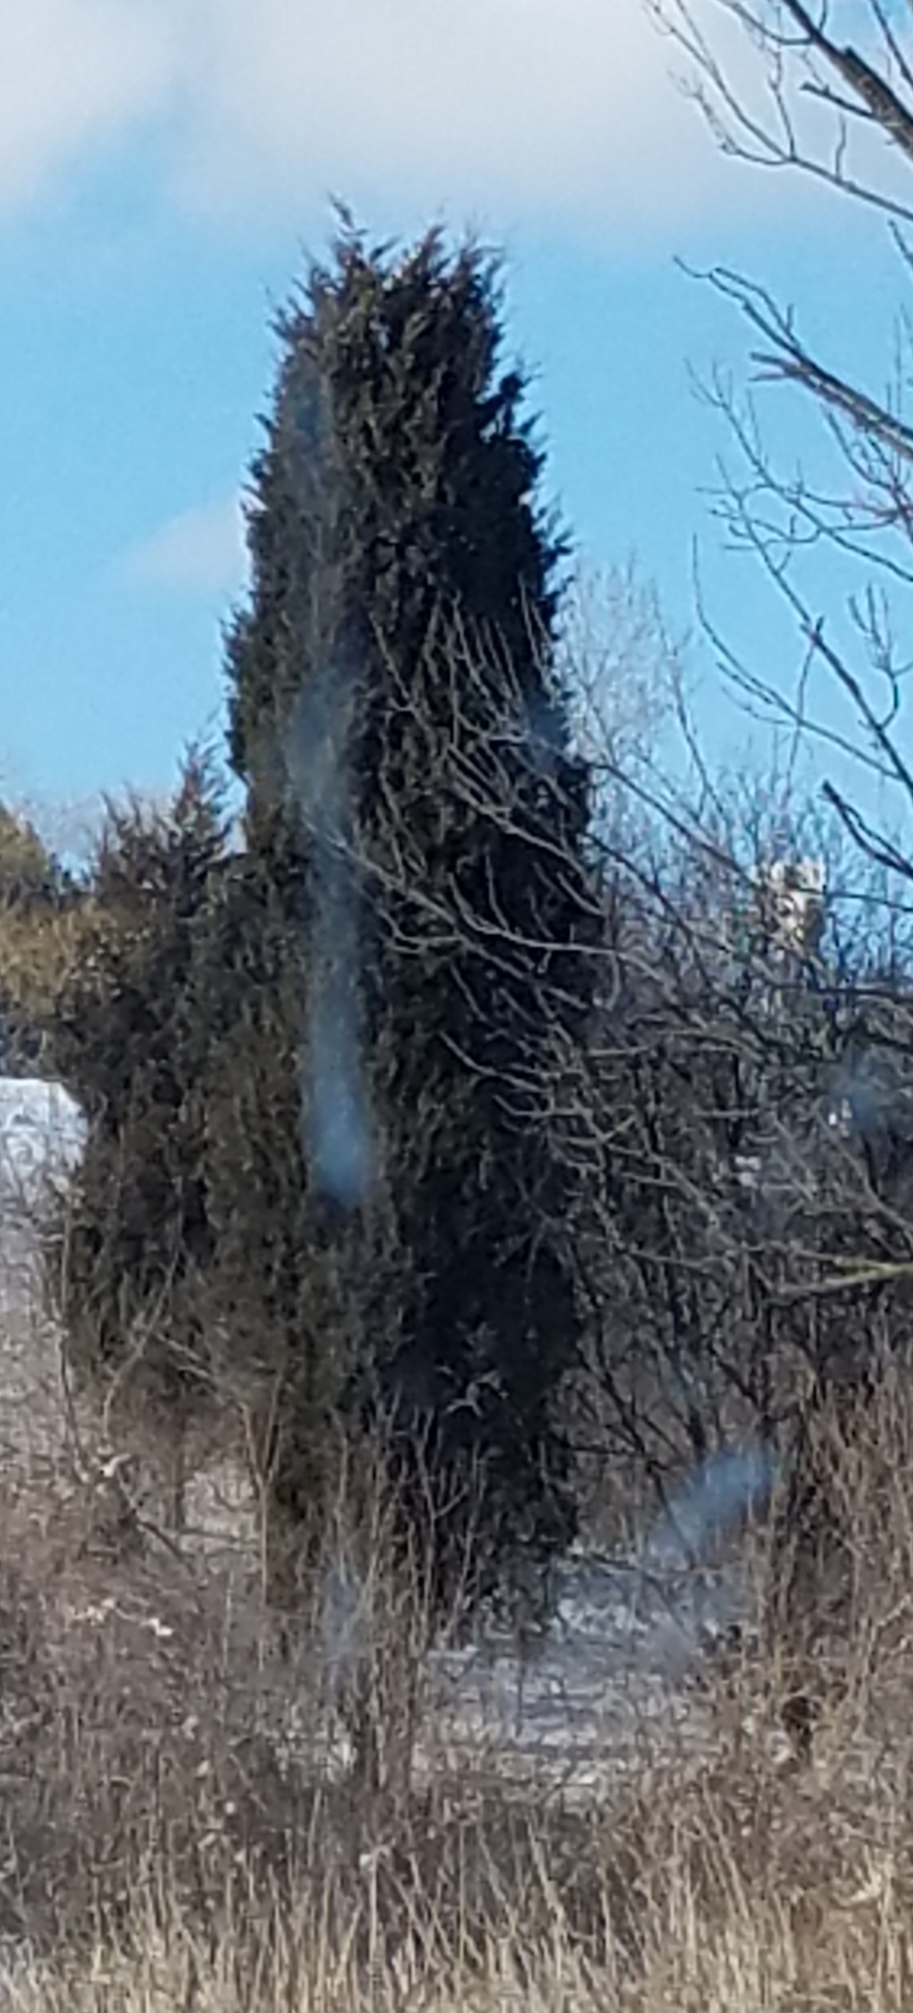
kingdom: Plantae
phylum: Tracheophyta
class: Pinopsida
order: Pinales
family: Cupressaceae
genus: Juniperus
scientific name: Juniperus virginiana
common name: Red juniper
